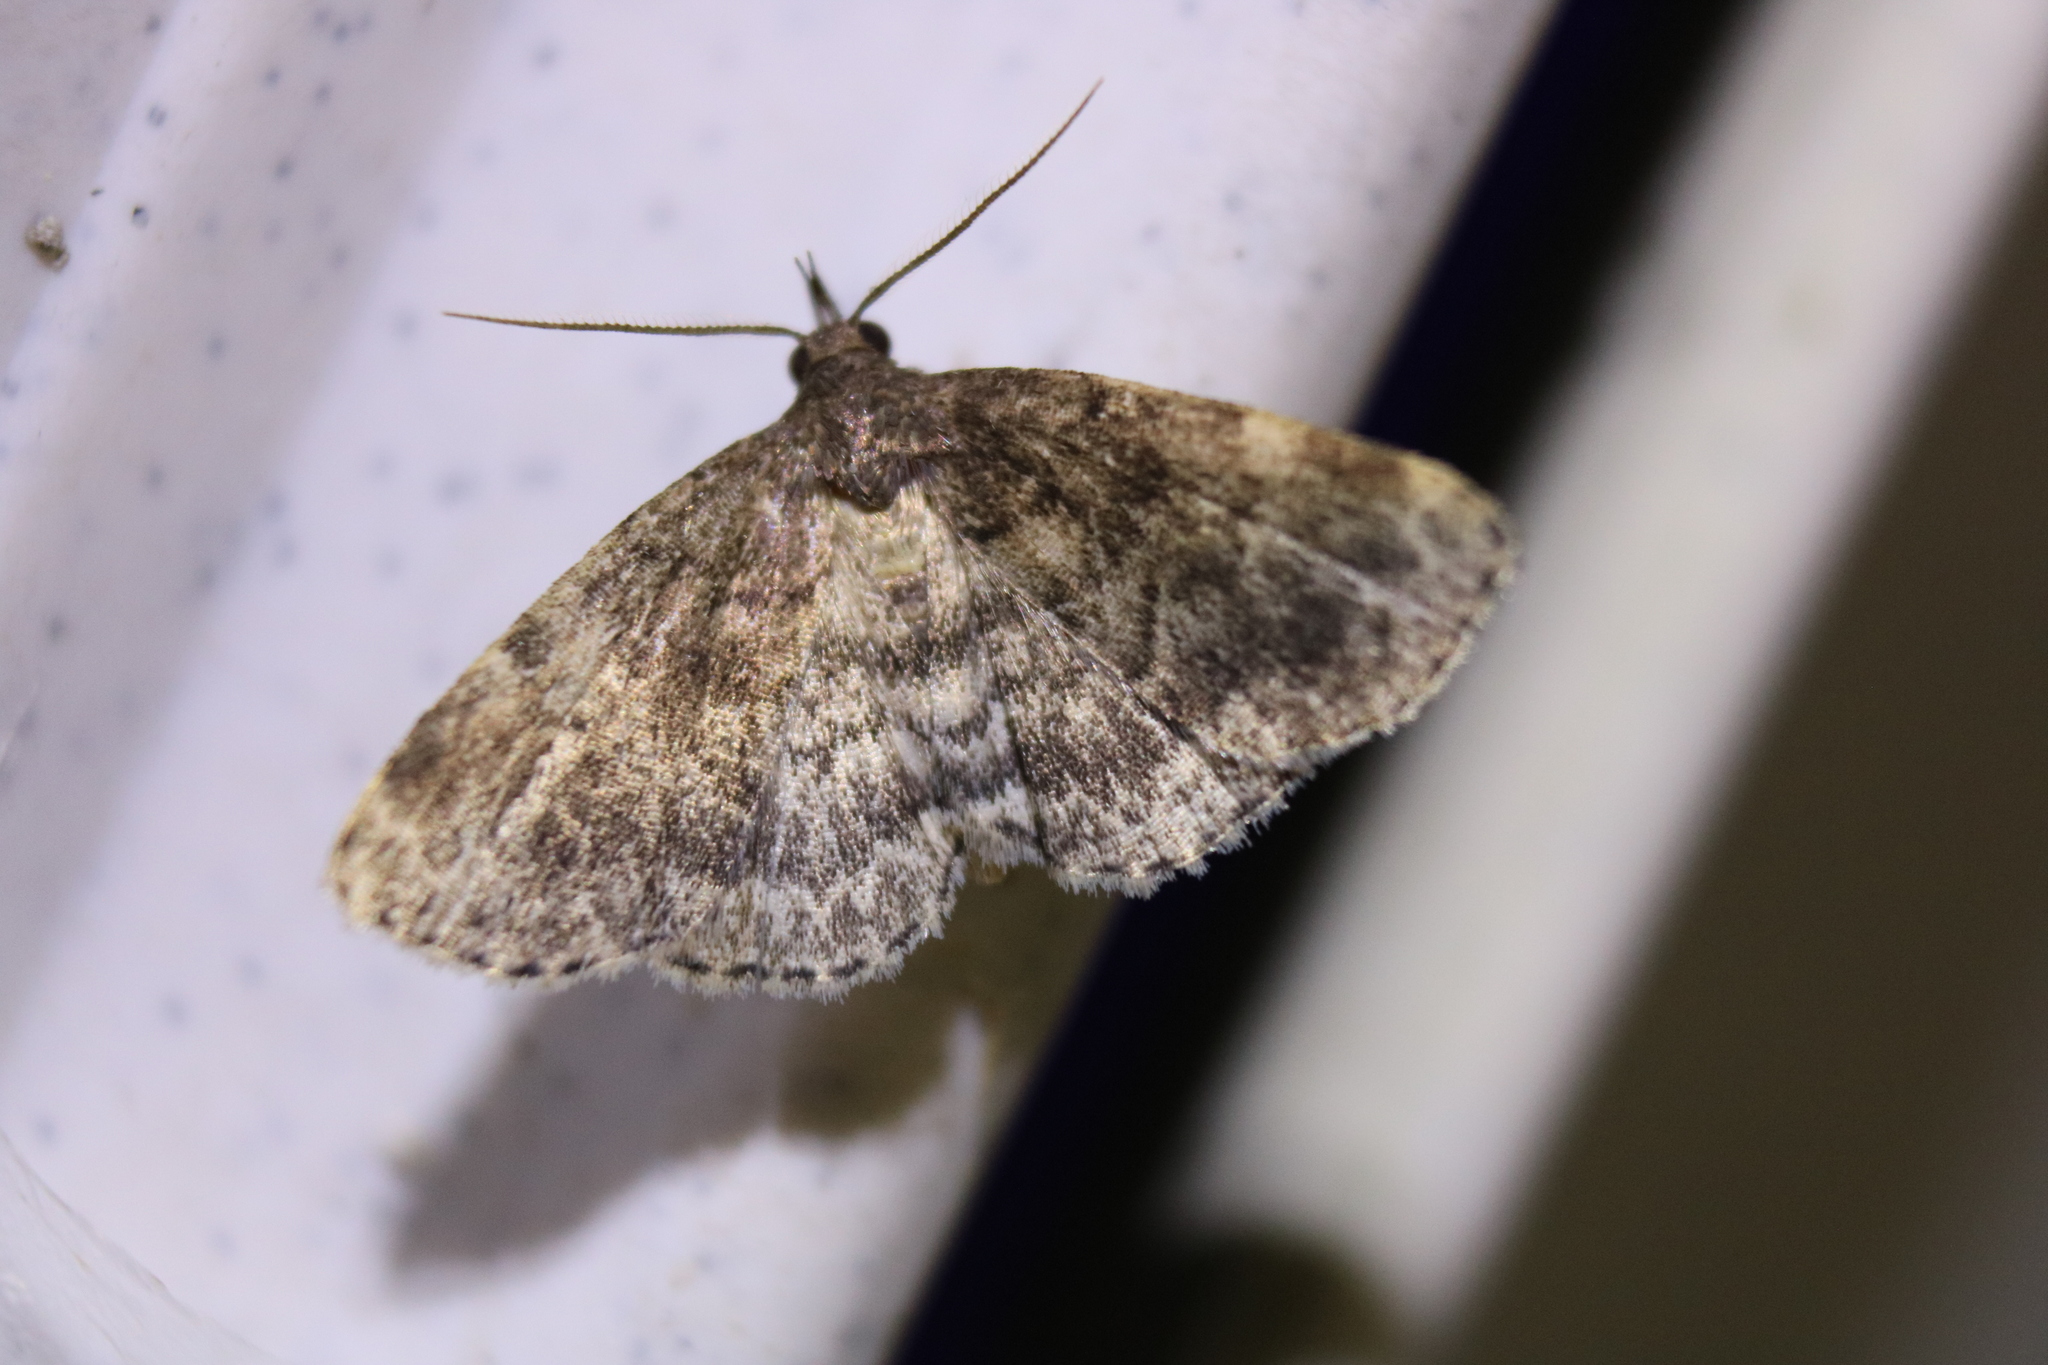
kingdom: Animalia
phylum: Arthropoda
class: Insecta
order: Lepidoptera
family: Erebidae
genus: Idia
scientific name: Idia forbesii
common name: Forbes' idia moth
